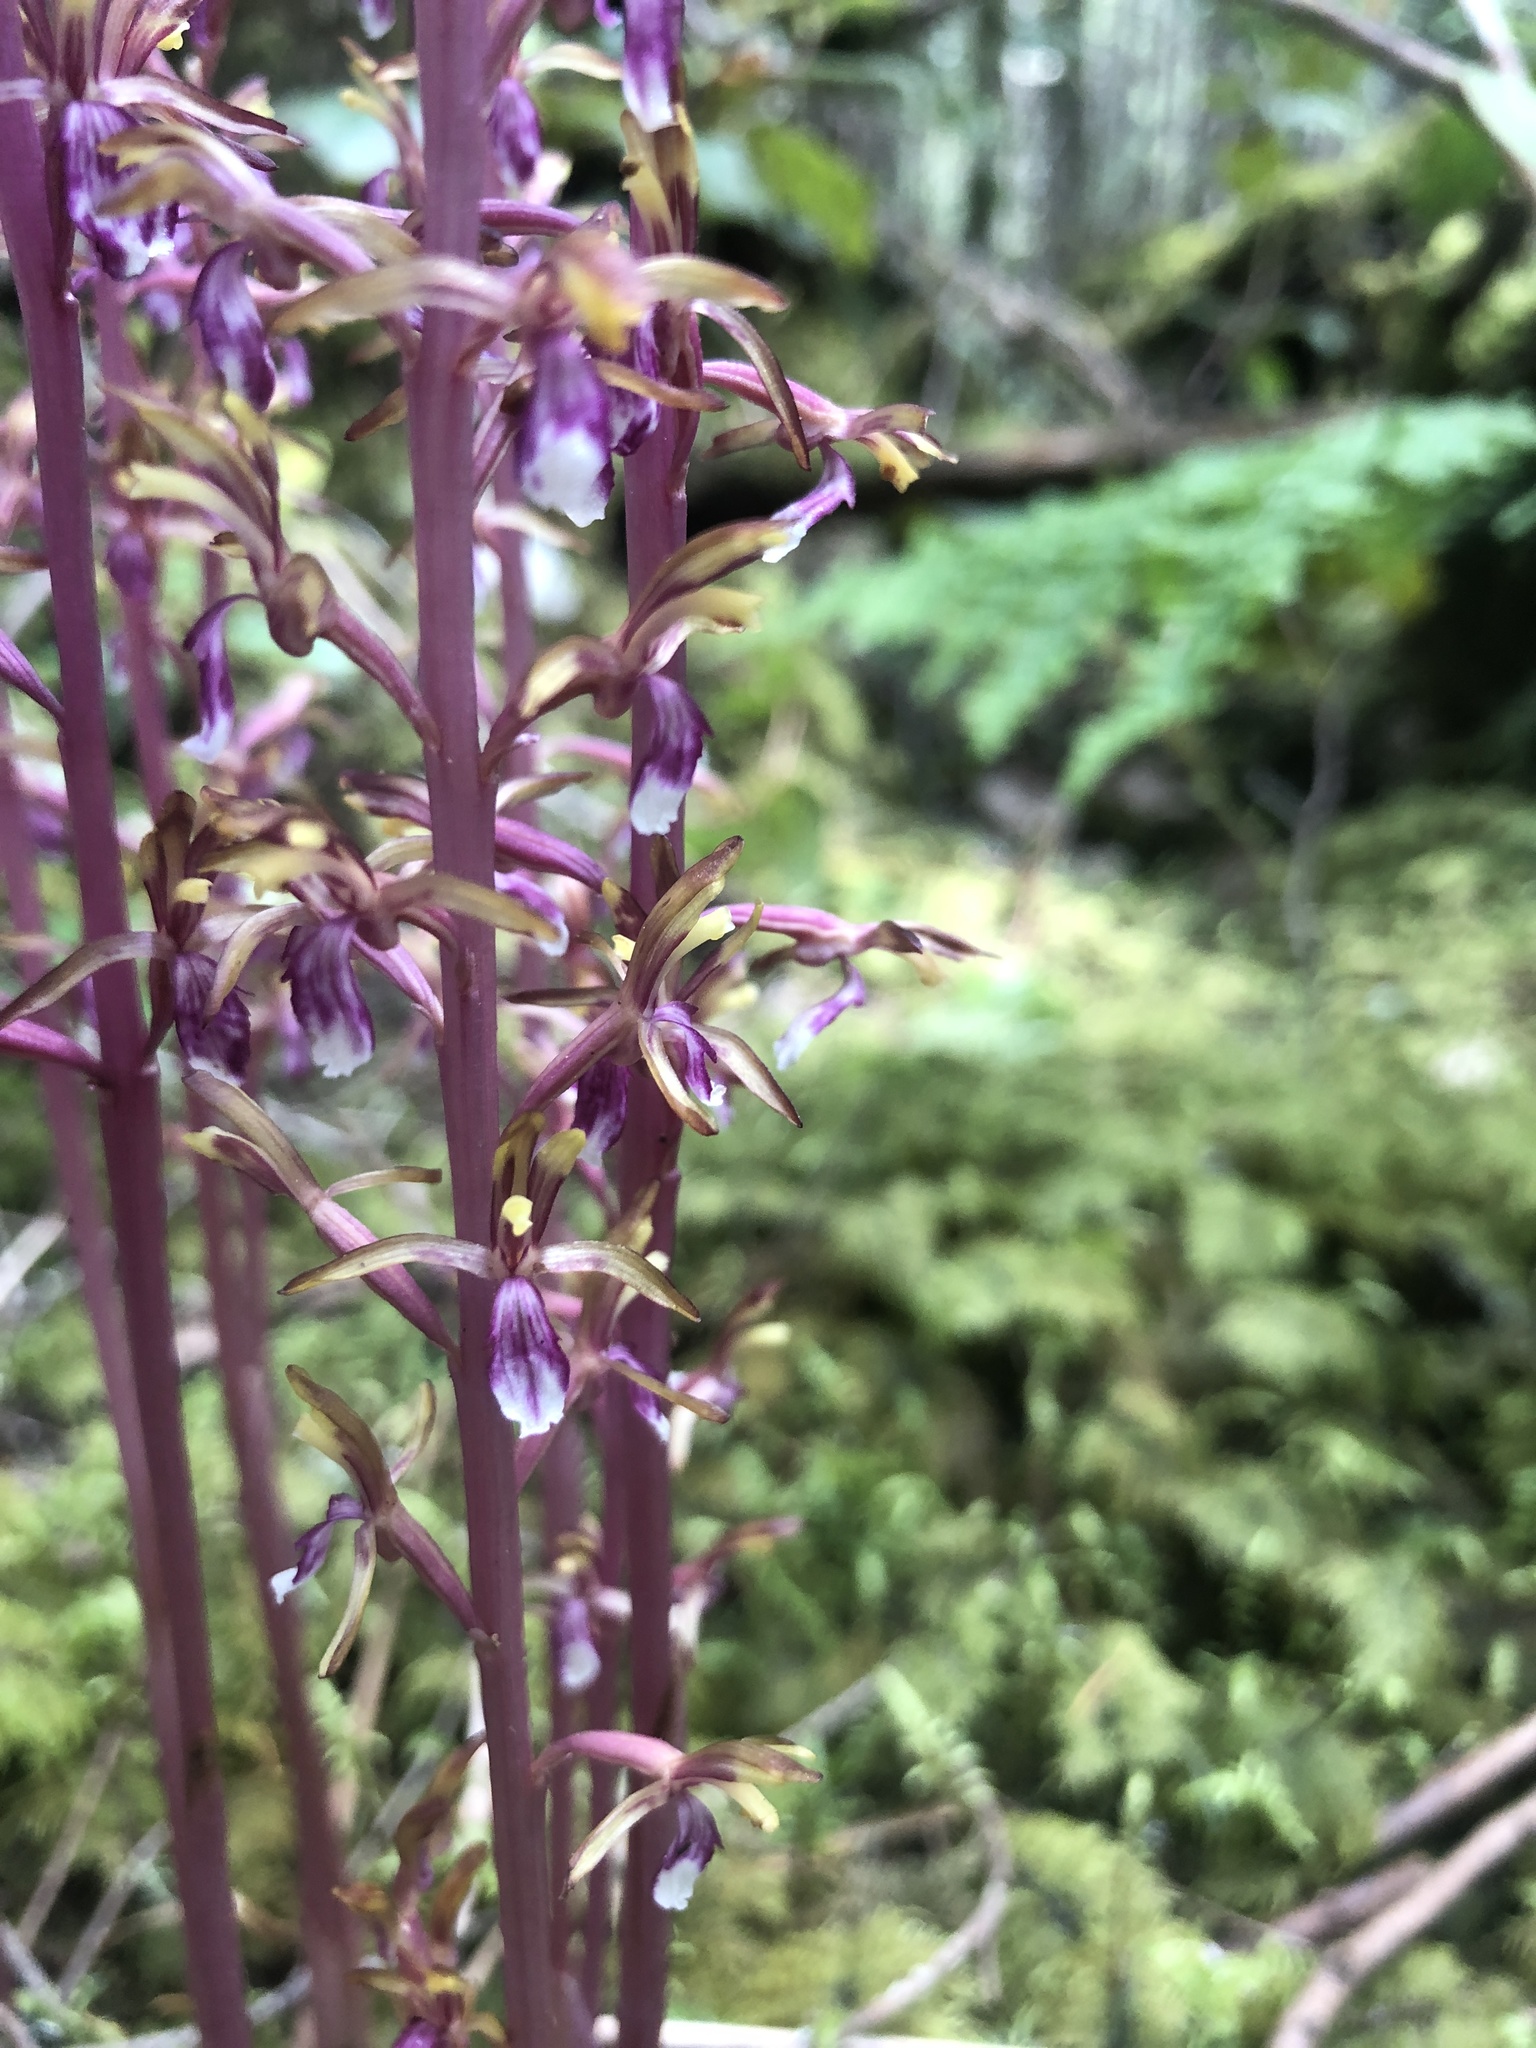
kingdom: Plantae
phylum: Tracheophyta
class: Liliopsida
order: Asparagales
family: Orchidaceae
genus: Corallorhiza
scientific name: Corallorhiza mertensiana
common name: Pacific coralroot
